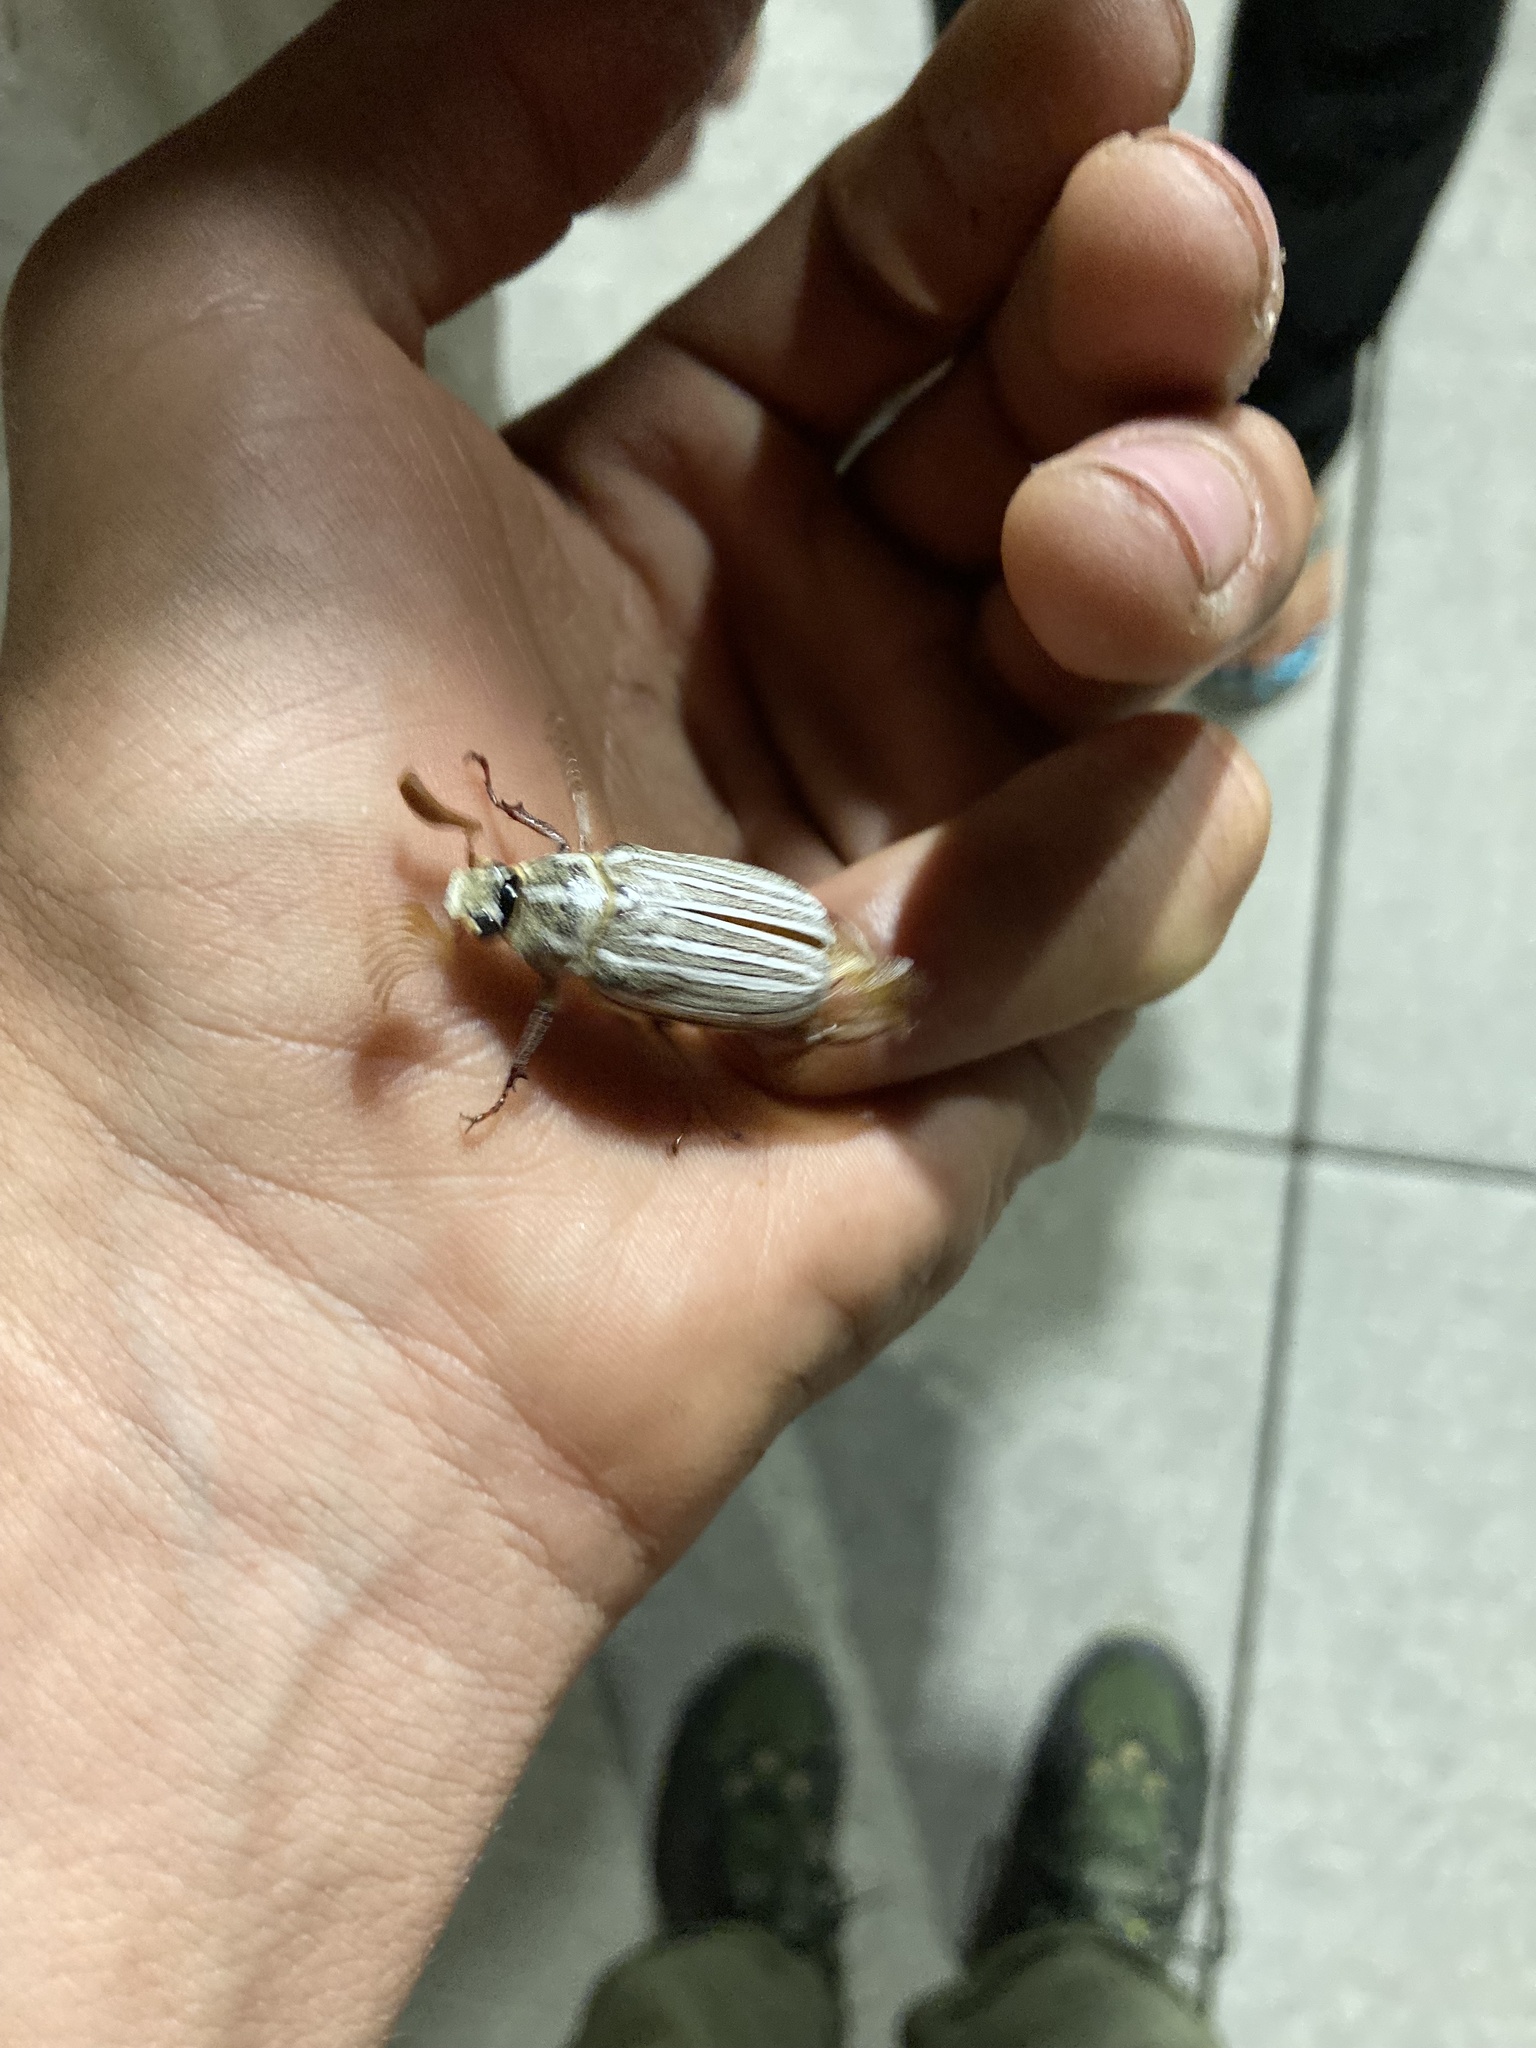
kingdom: Animalia
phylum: Arthropoda
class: Insecta
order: Coleoptera
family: Scarabaeidae
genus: Polyphylla
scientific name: Polyphylla decemlineata
